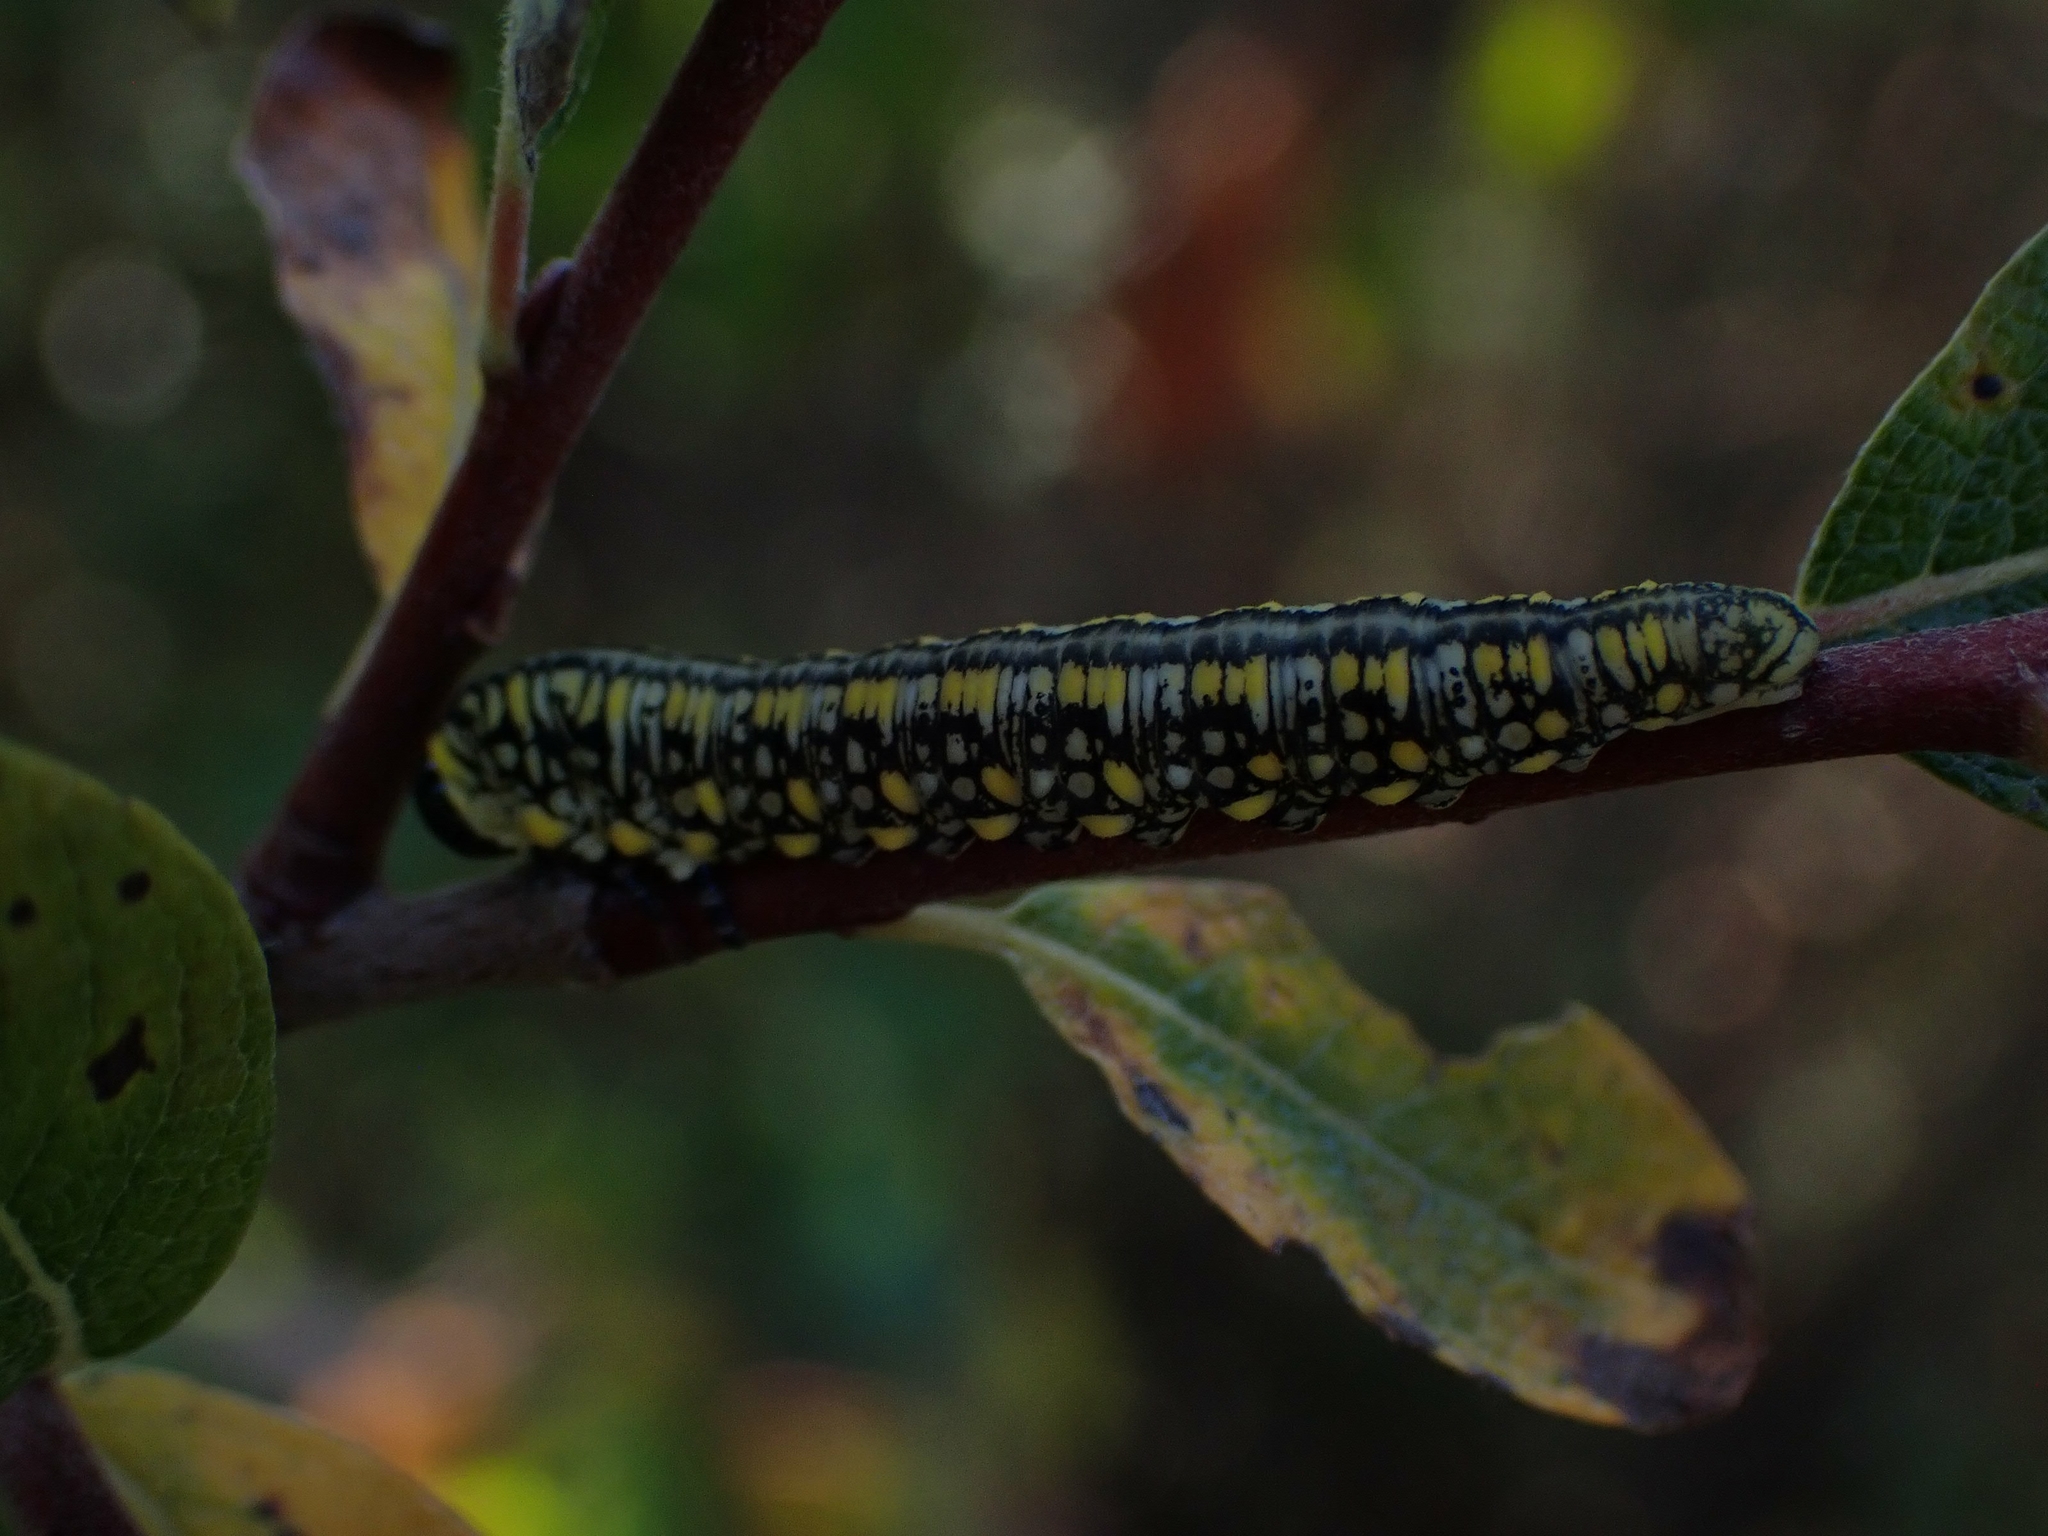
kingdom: Animalia
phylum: Arthropoda
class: Insecta
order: Hymenoptera
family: Diprionidae
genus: Diprion
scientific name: Diprion similis
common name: Pine sawfly
